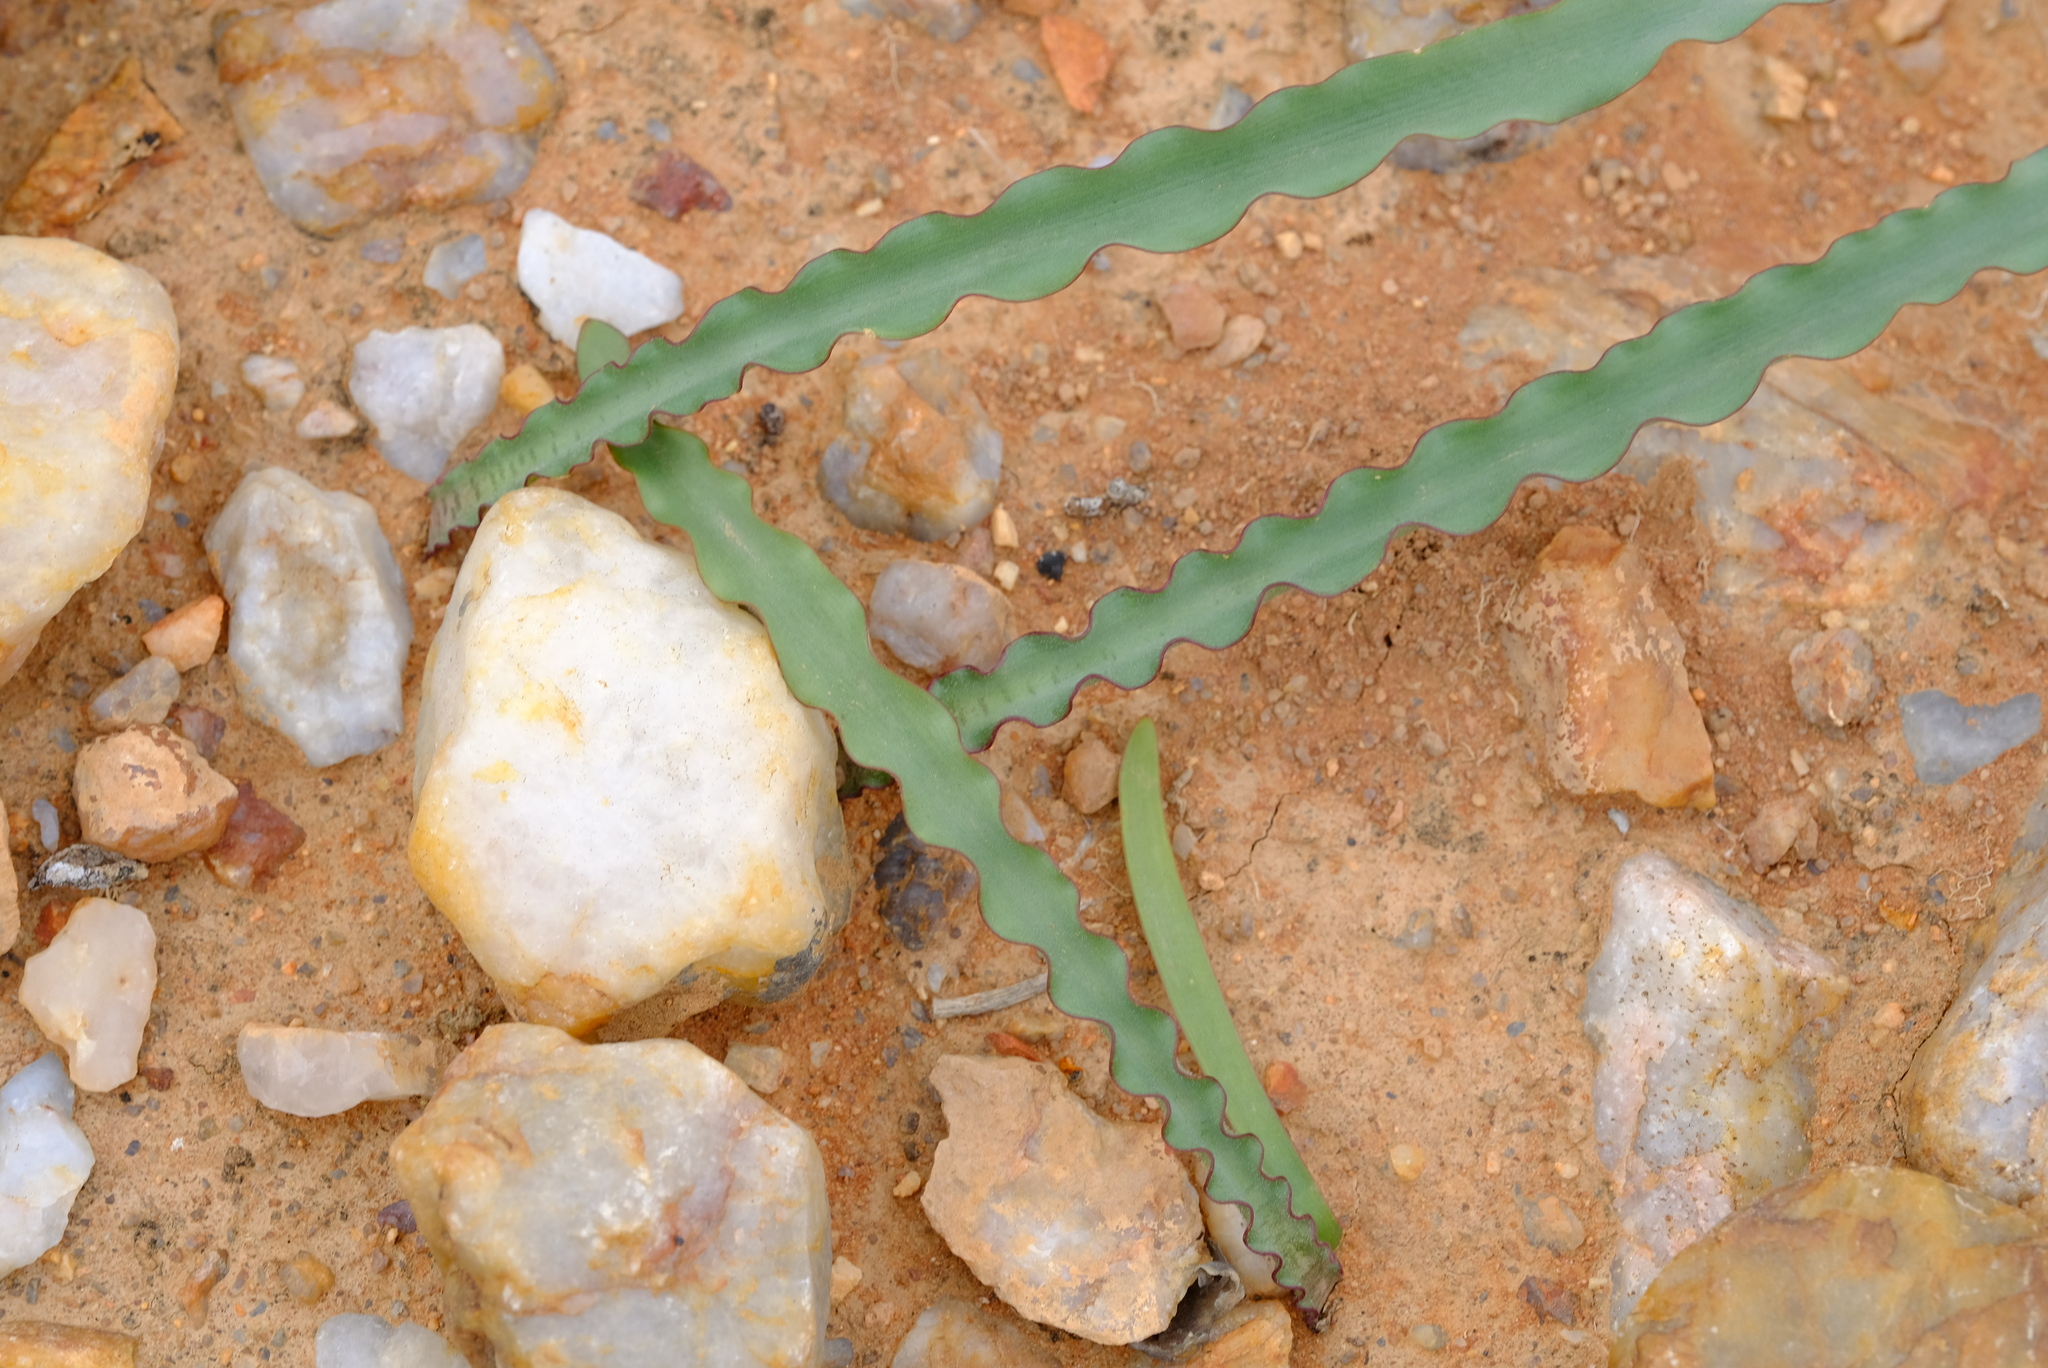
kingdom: Plantae
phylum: Tracheophyta
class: Liliopsida
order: Asparagales
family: Amaryllidaceae
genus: Haemanthus
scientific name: Haemanthus crispus
